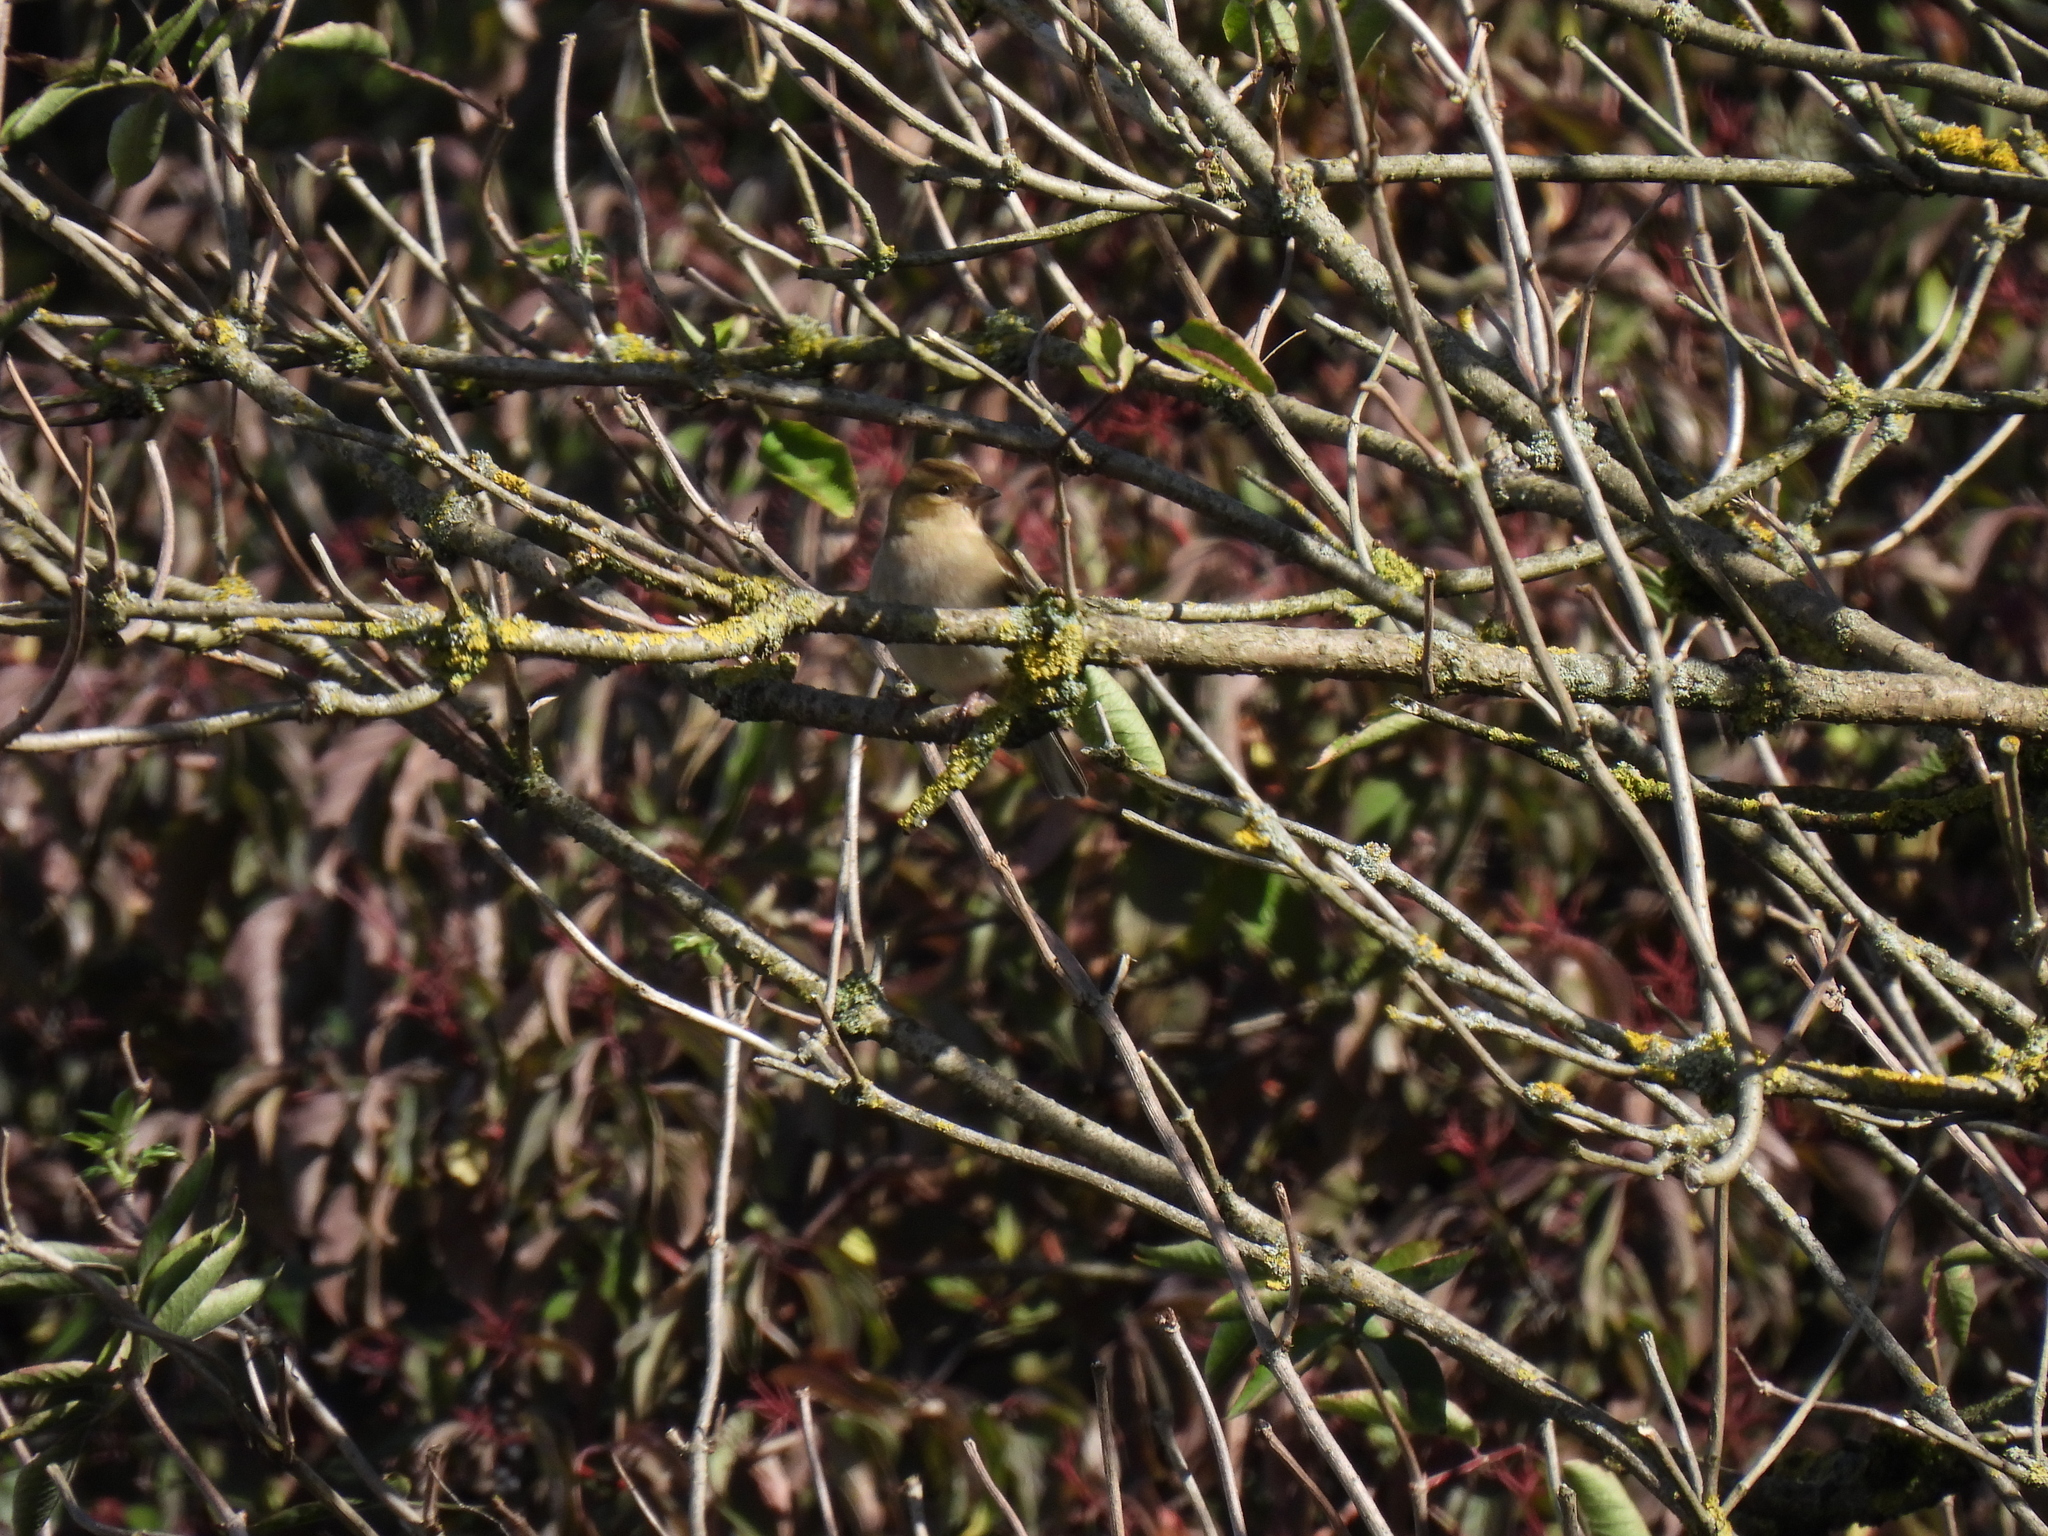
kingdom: Animalia
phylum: Chordata
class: Aves
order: Passeriformes
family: Fringillidae
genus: Fringilla
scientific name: Fringilla coelebs
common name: Common chaffinch
